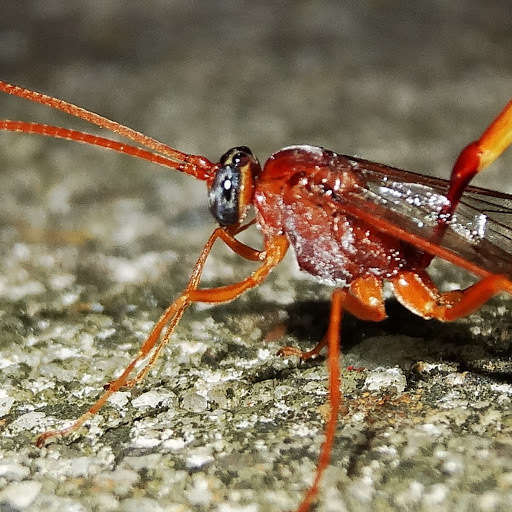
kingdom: Animalia
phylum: Arthropoda
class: Insecta
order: Hymenoptera
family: Ichneumonidae
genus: Enicospilus
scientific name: Enicospilus sausi
